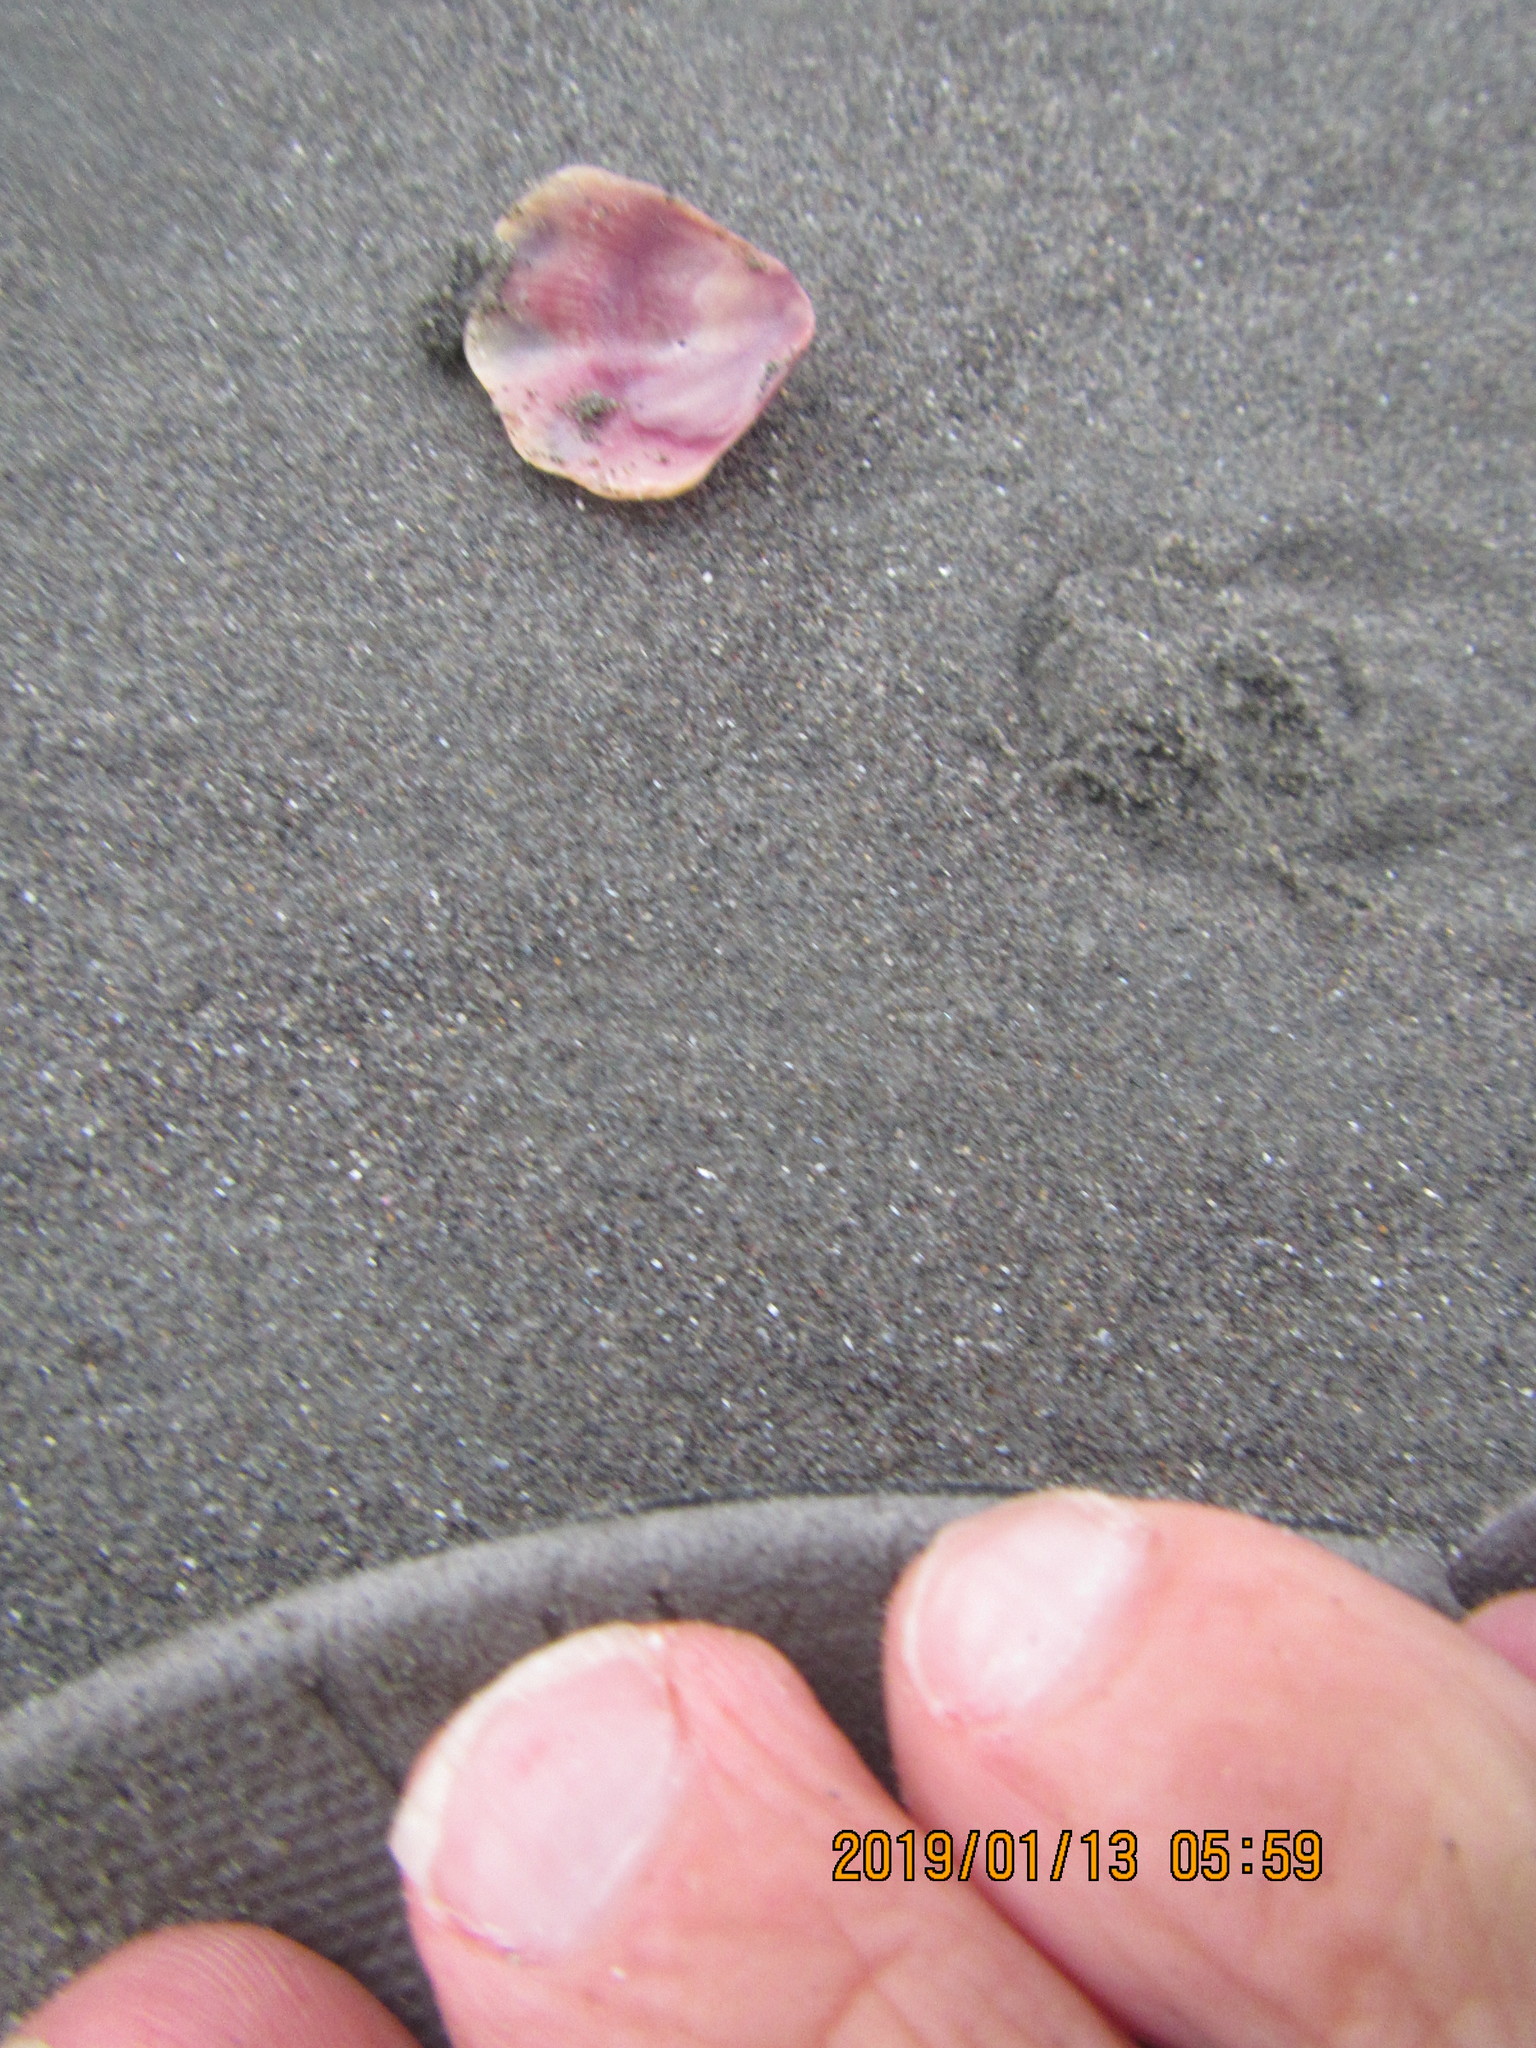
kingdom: Animalia
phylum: Mollusca
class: Bivalvia
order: Pectinida
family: Pectinidae
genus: Mesopeplum
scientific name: Mesopeplum convexum
